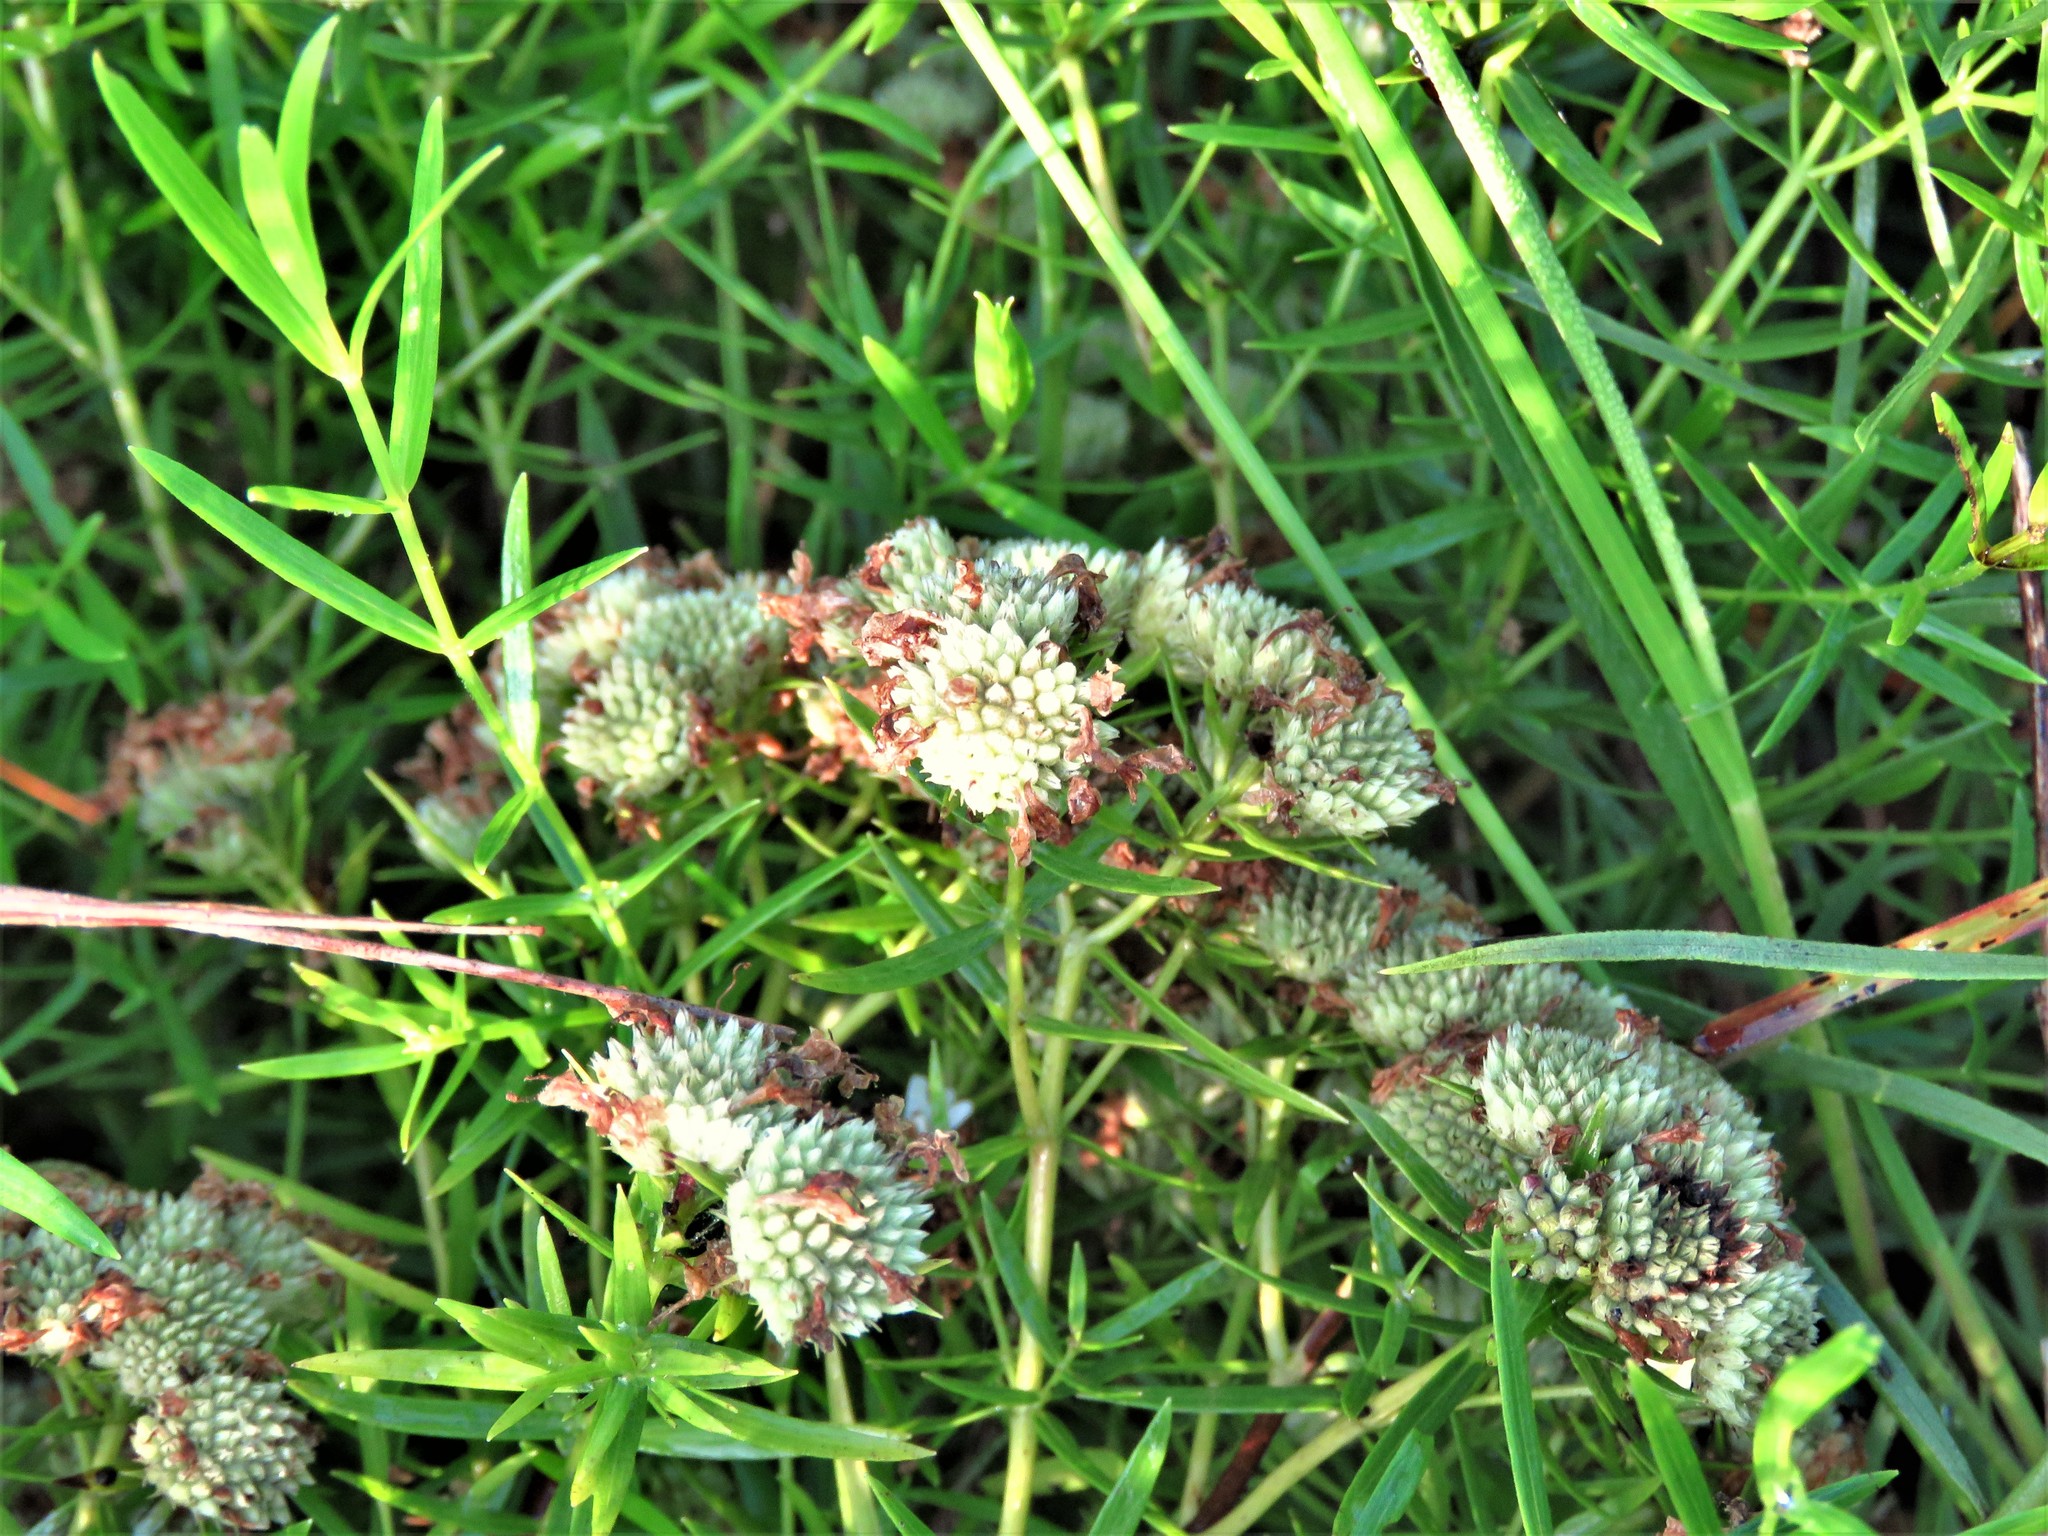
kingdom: Plantae
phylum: Tracheophyta
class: Magnoliopsida
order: Lamiales
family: Lamiaceae
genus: Pycnanthemum
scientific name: Pycnanthemum tenuifolium
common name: Narrow-leaf mountain-mint
